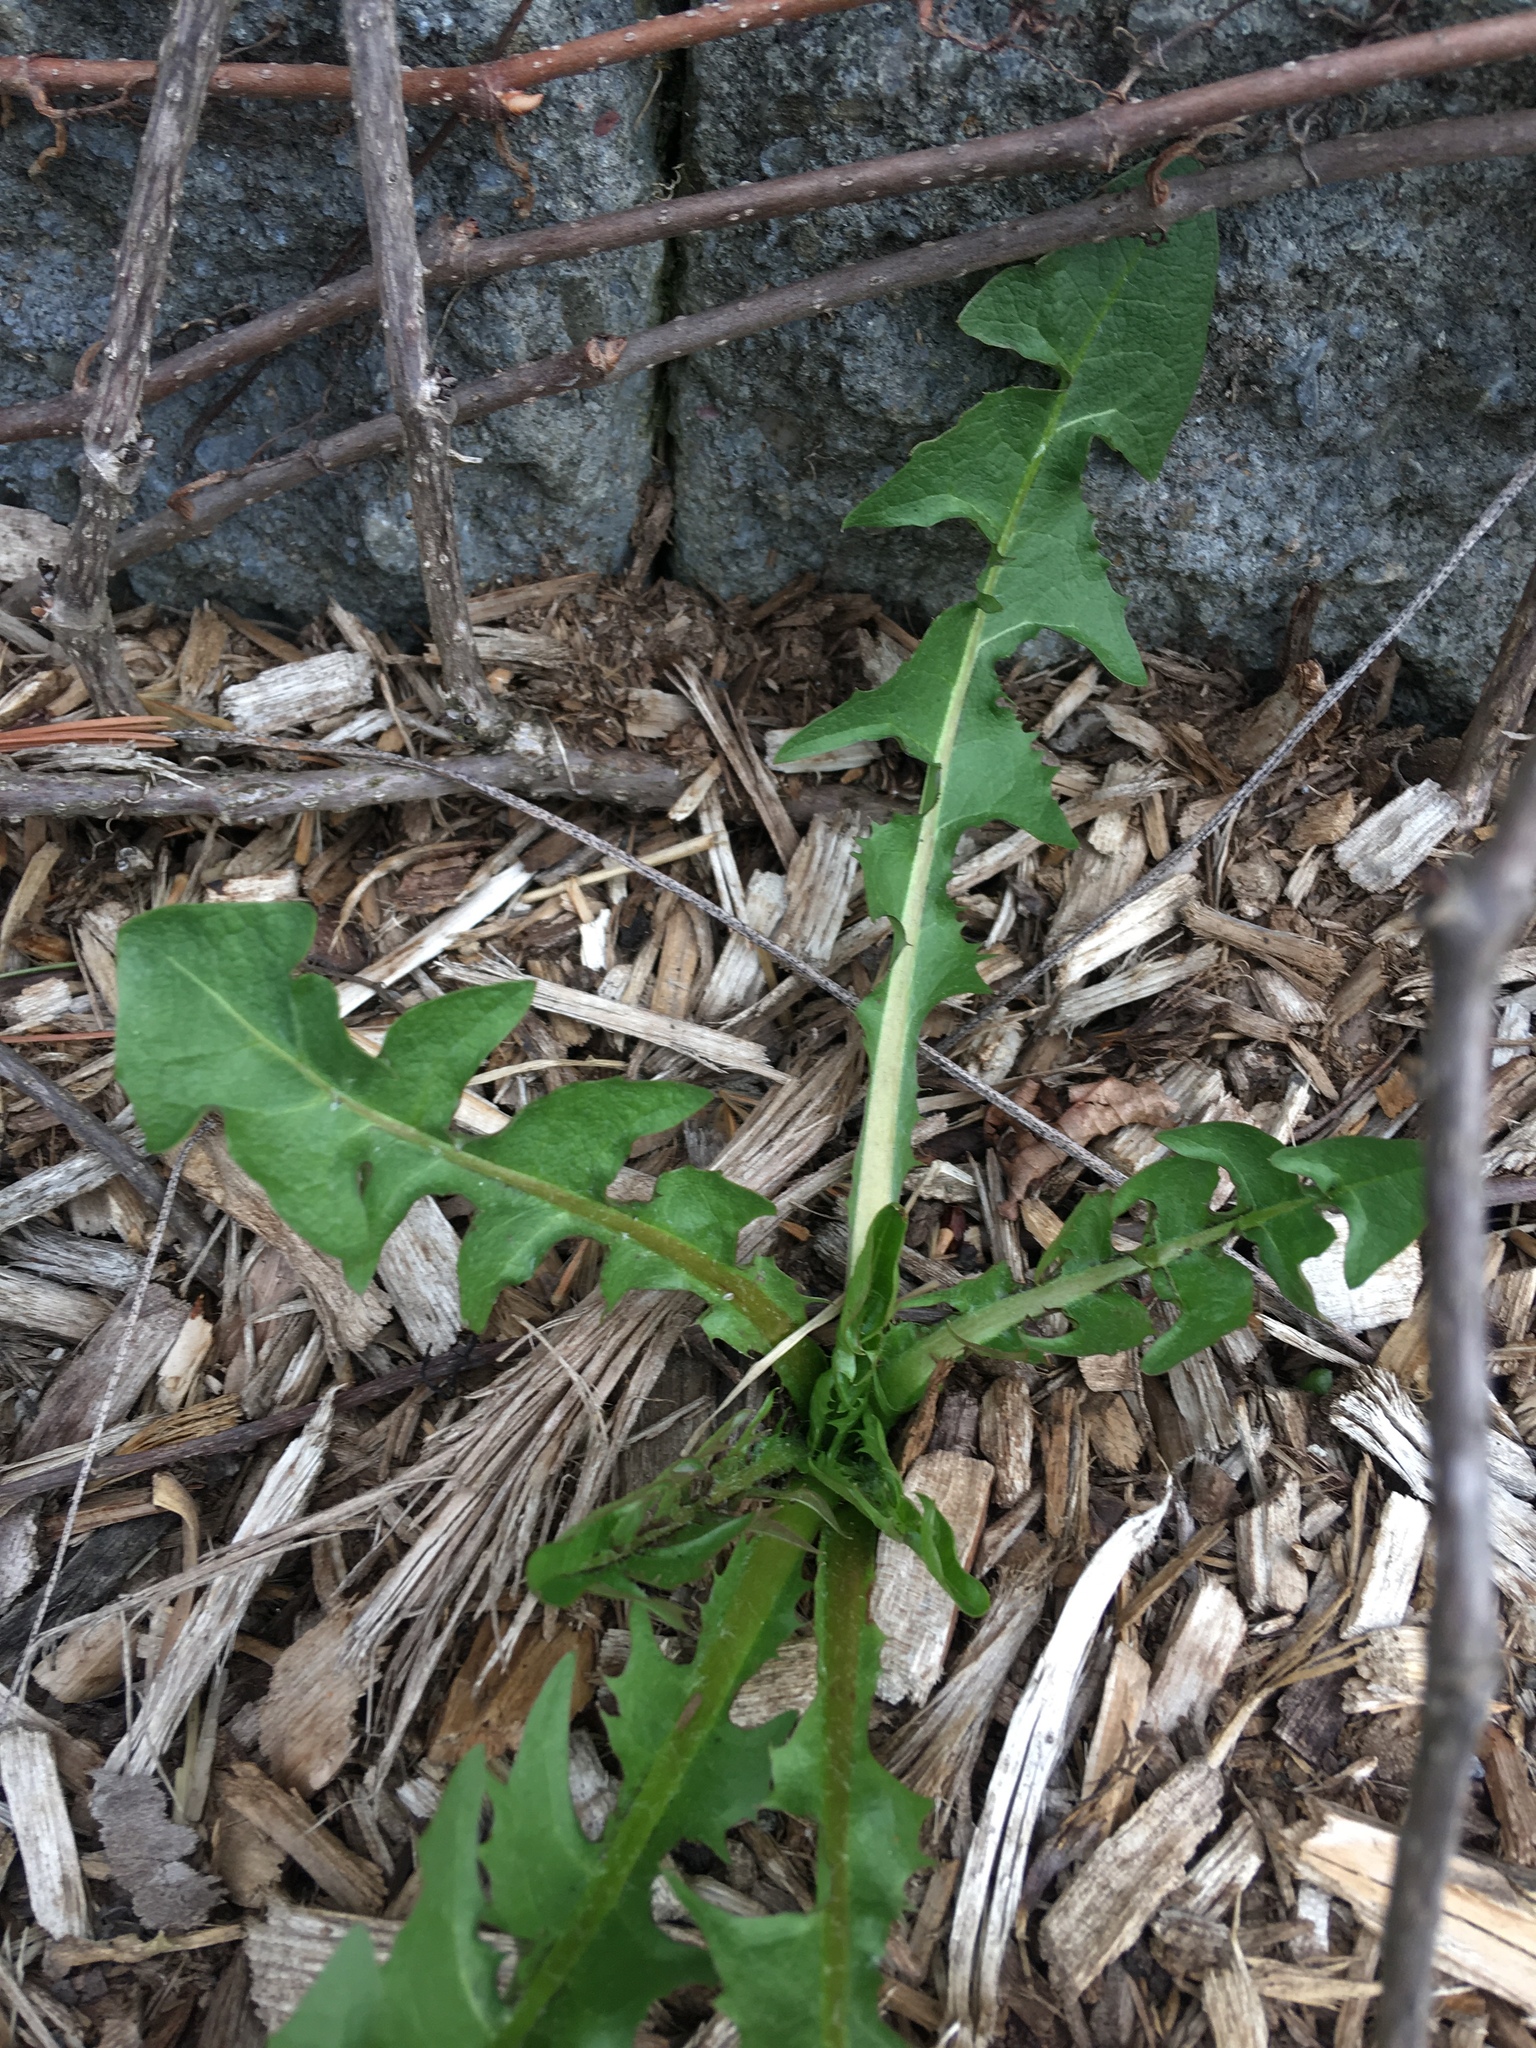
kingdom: Plantae
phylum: Tracheophyta
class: Magnoliopsida
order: Asterales
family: Asteraceae
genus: Taraxacum
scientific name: Taraxacum officinale
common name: Common dandelion
